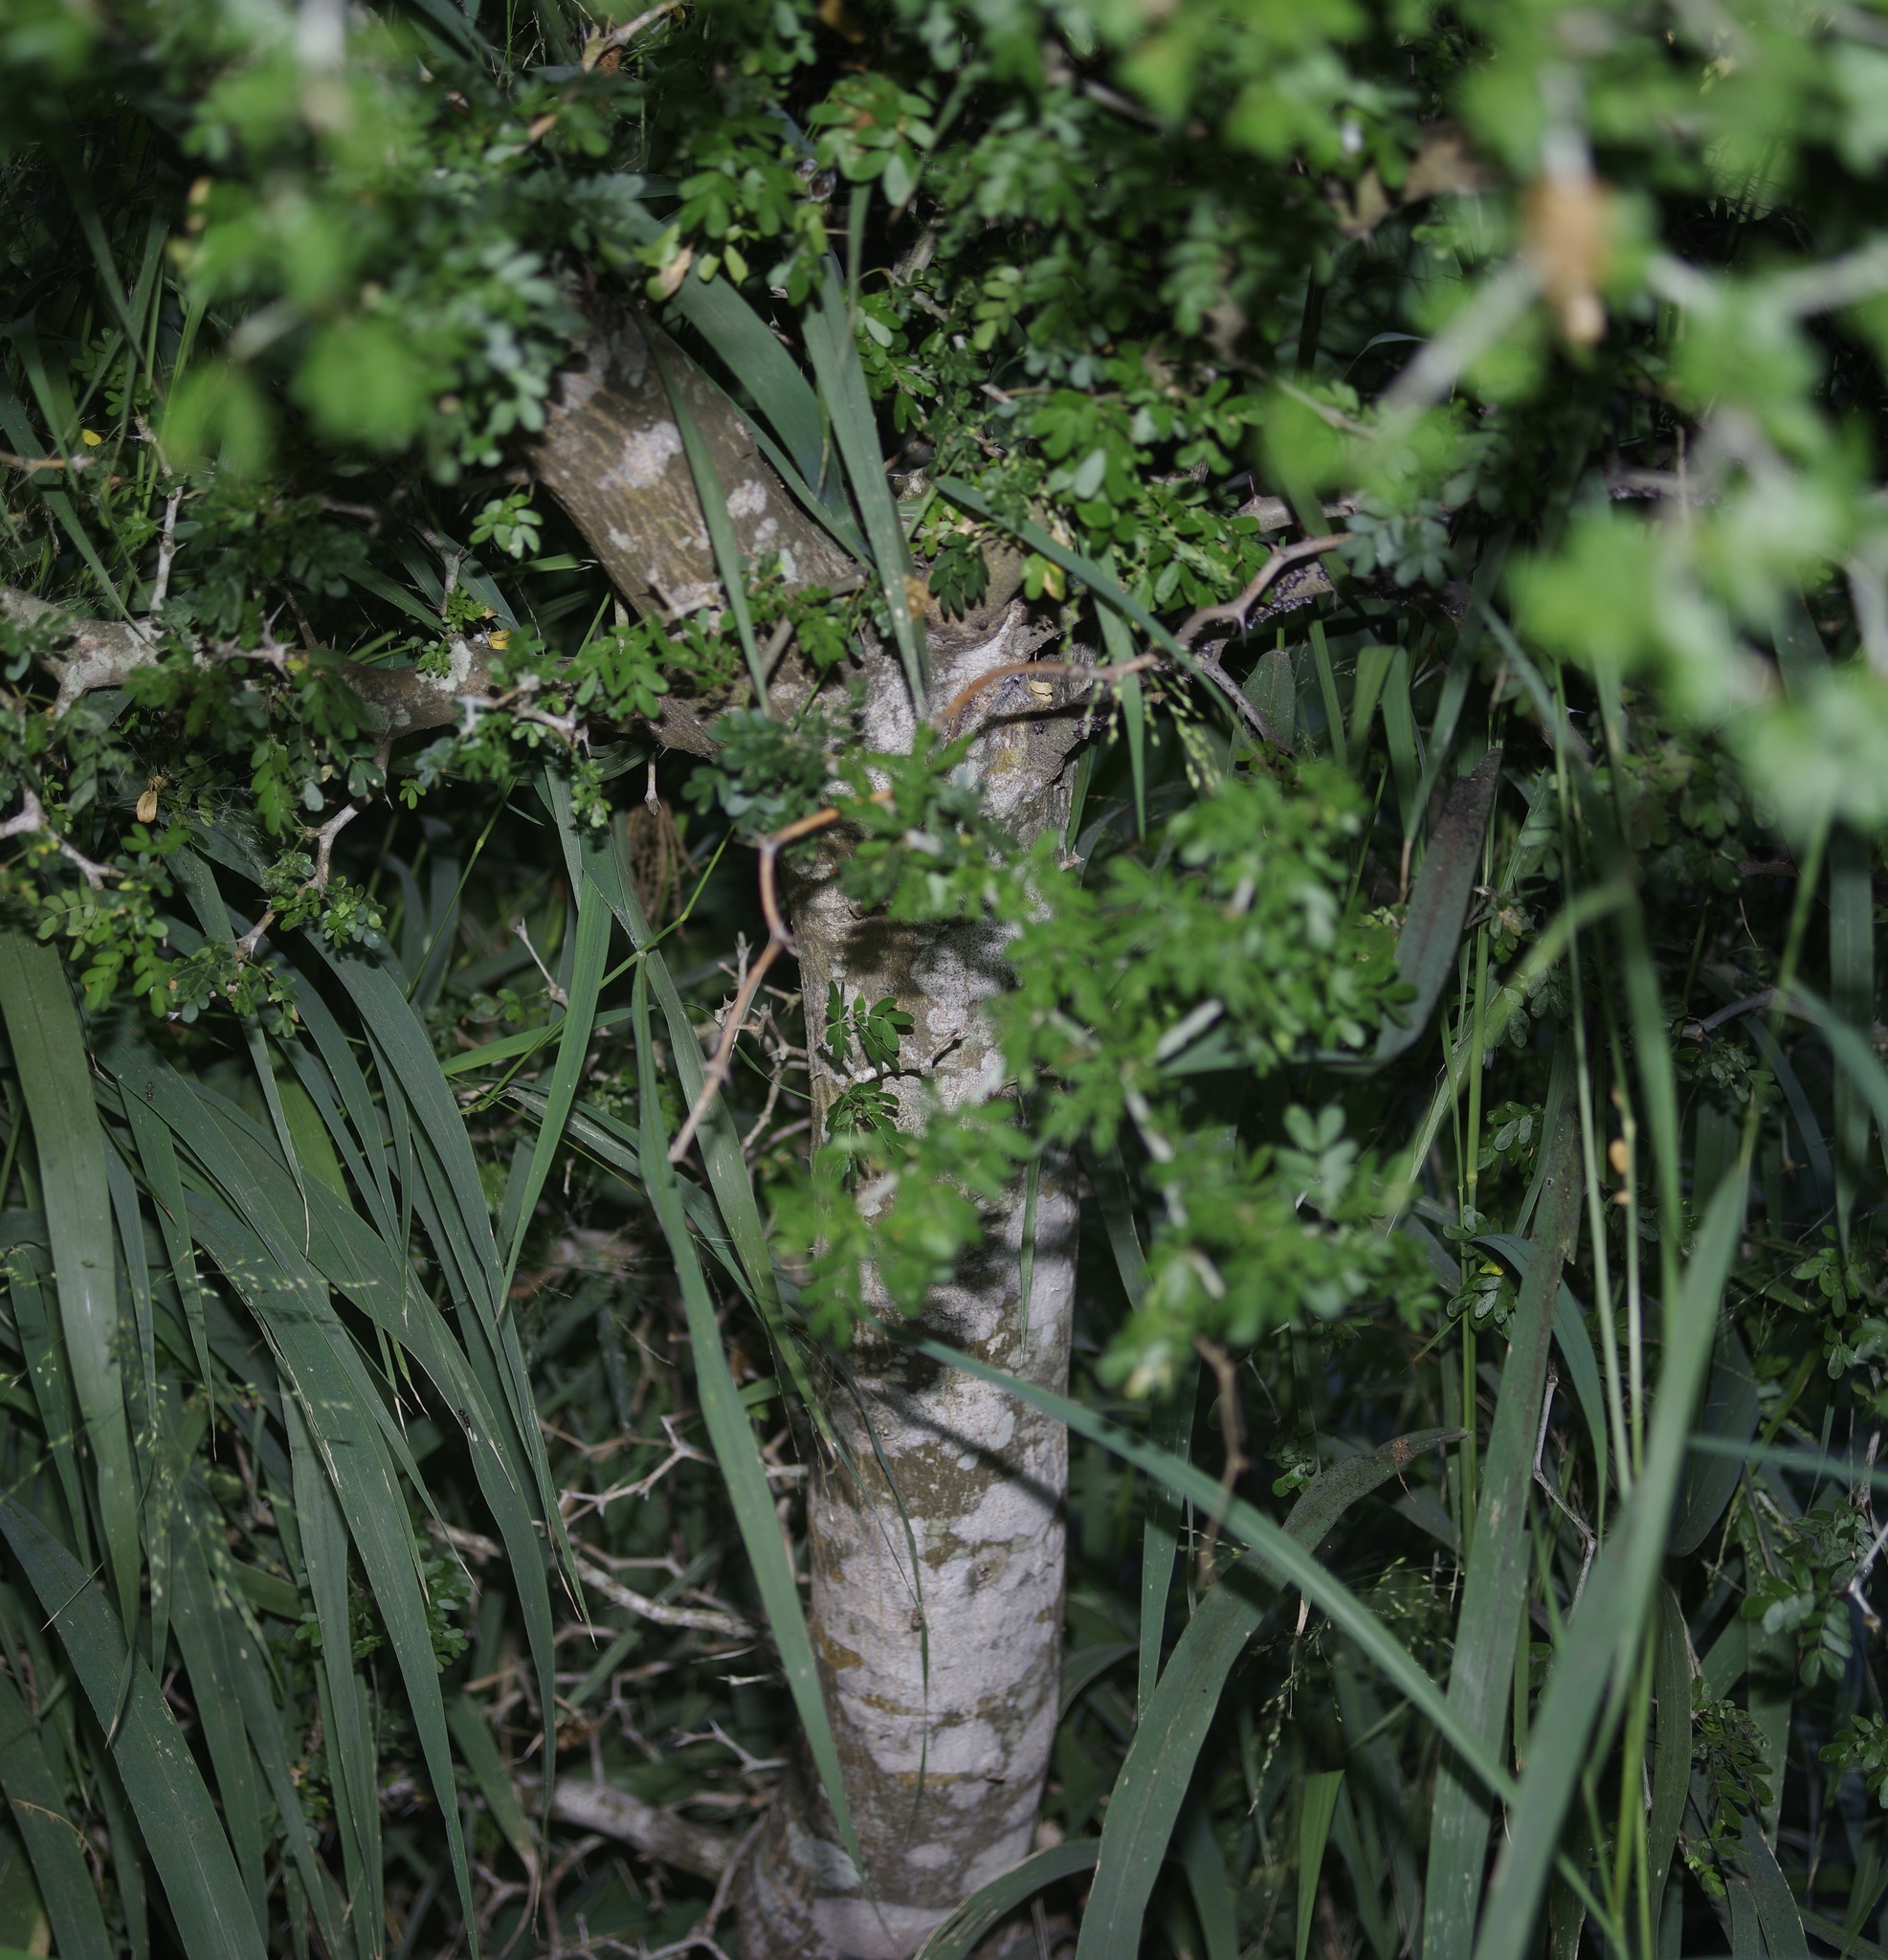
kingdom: Plantae
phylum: Tracheophyta
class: Magnoliopsida
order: Fabales
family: Fabaceae
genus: Ebenopsis
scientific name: Ebenopsis ebano
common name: Ebony blackbead
